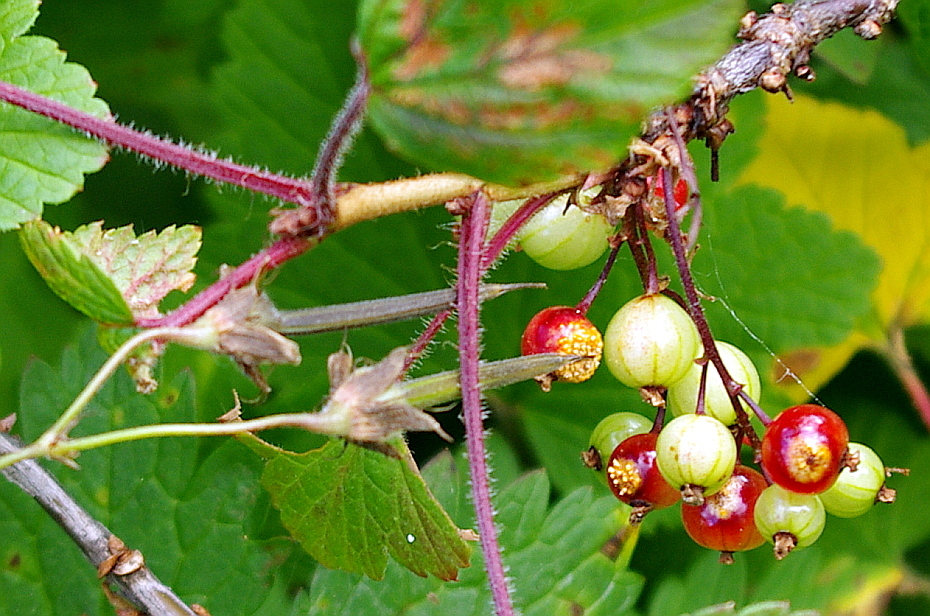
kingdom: Plantae
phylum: Tracheophyta
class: Magnoliopsida
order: Saxifragales
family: Grossulariaceae
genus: Ribes
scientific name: Ribes spicatum
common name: Downy currant
